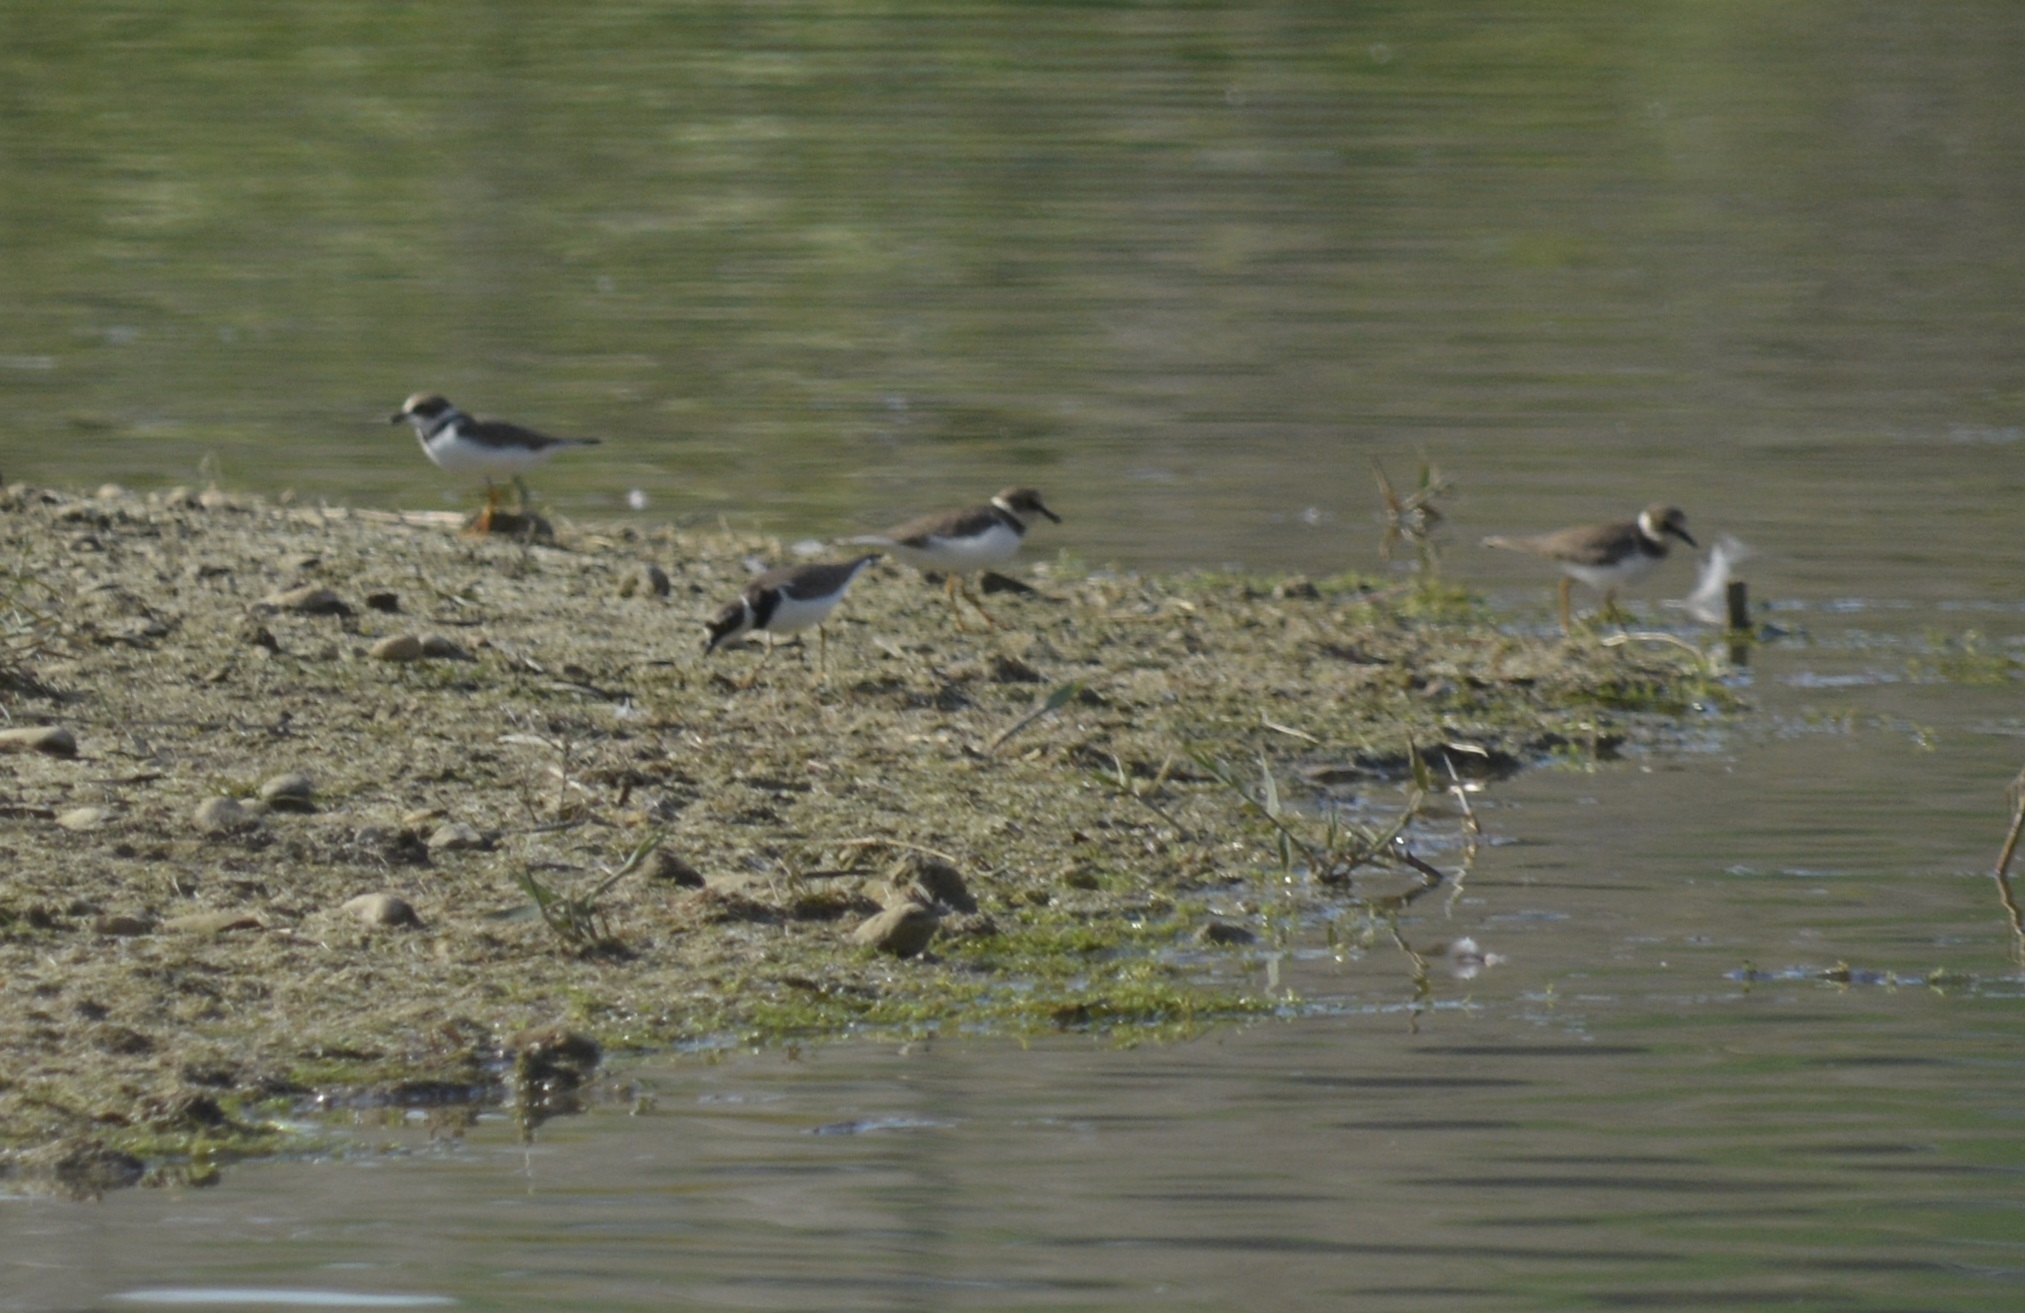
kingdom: Animalia
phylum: Chordata
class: Aves
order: Charadriiformes
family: Charadriidae
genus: Charadrius
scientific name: Charadrius dubius
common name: Little ringed plover
